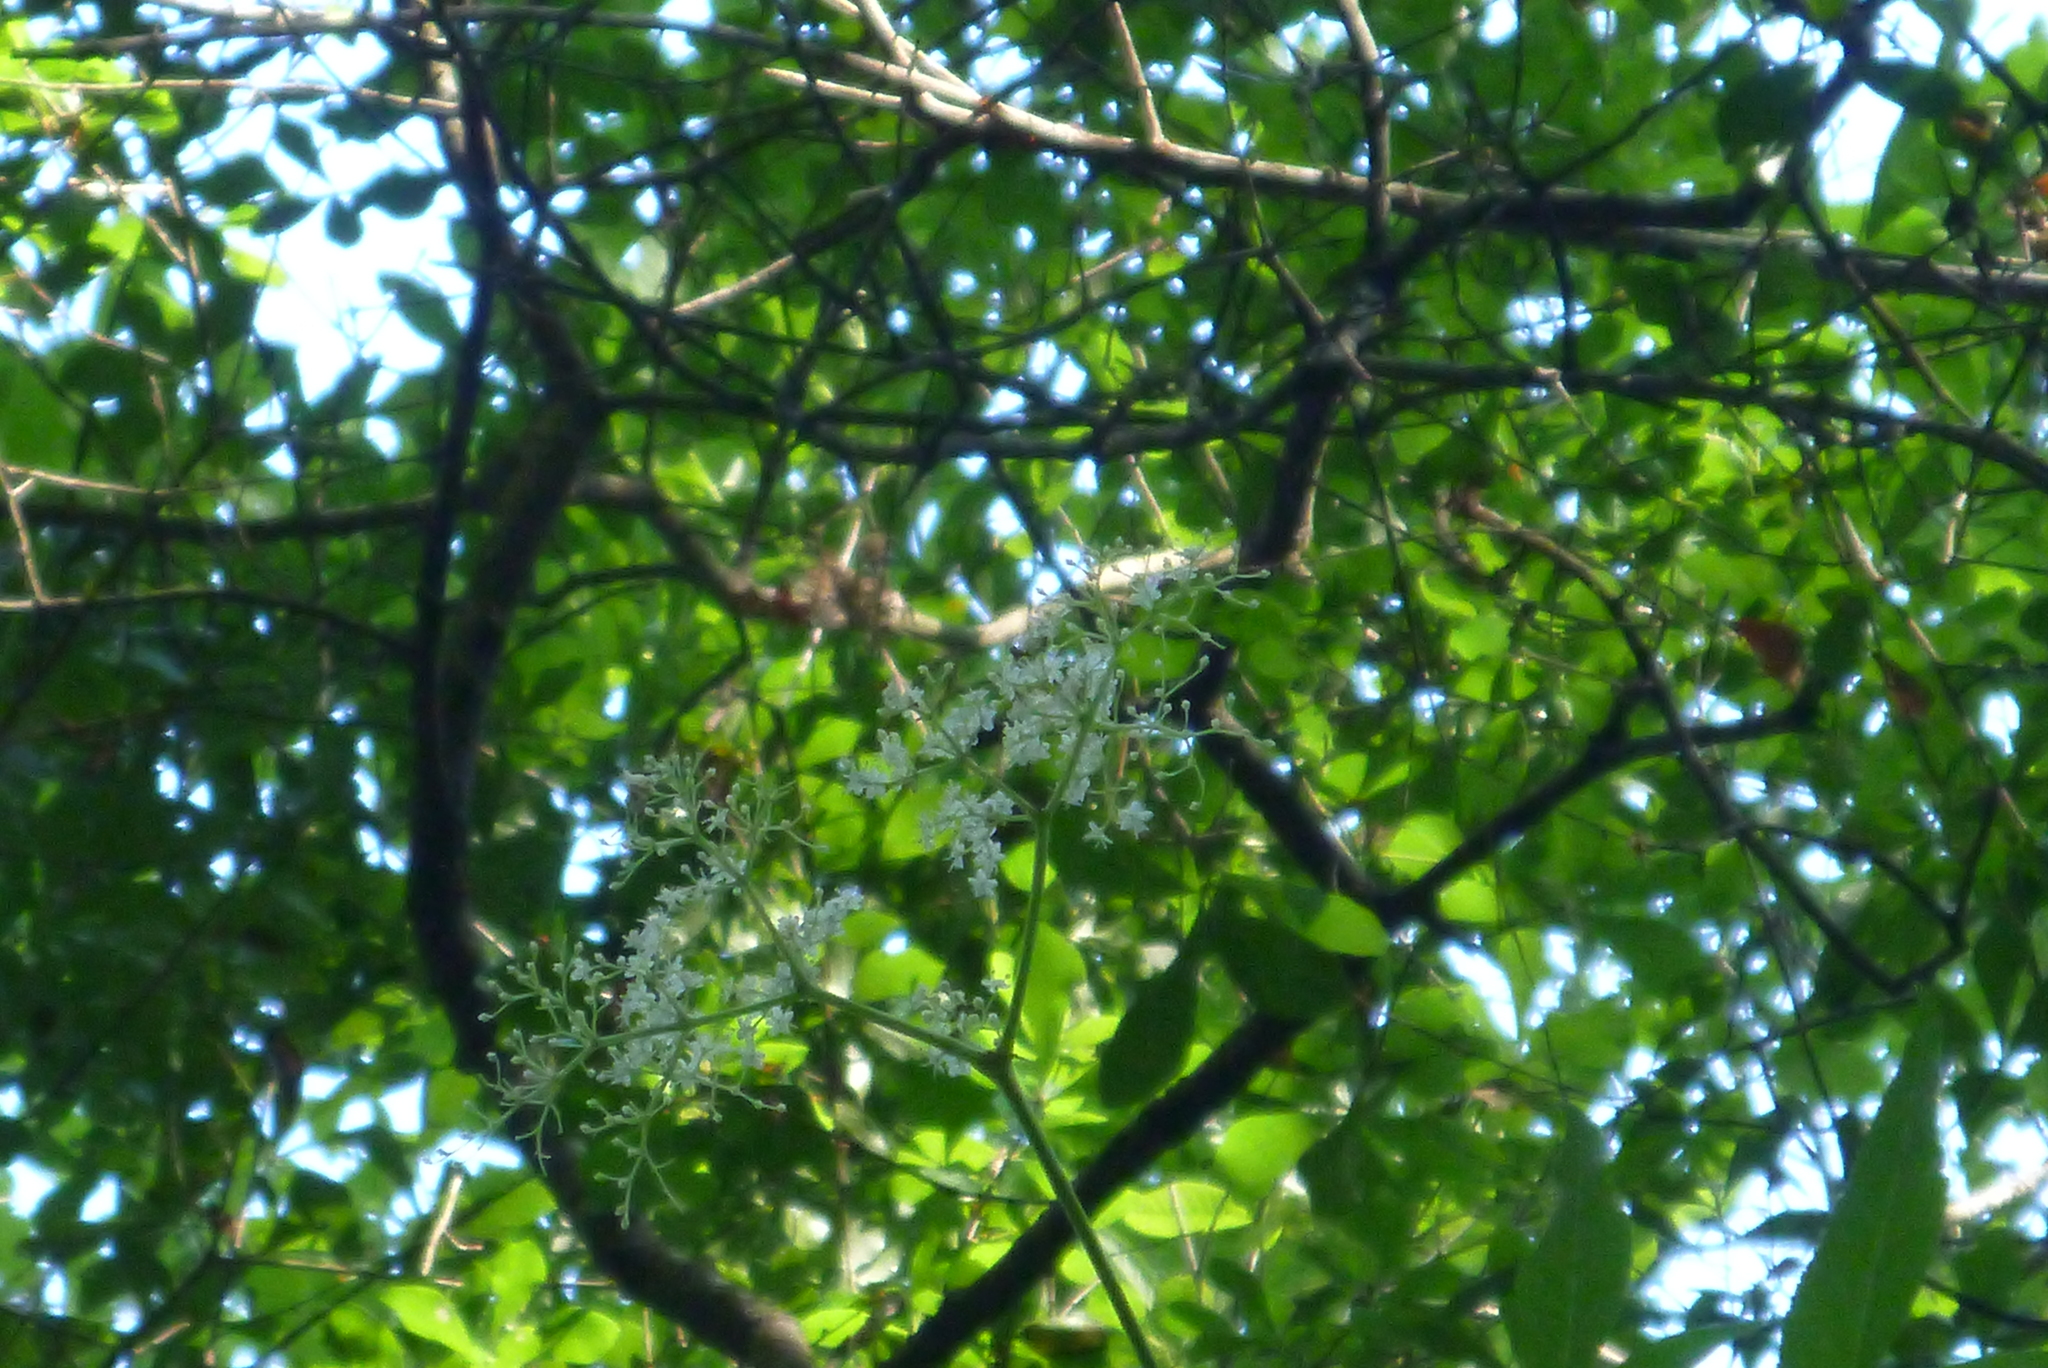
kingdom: Plantae
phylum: Tracheophyta
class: Magnoliopsida
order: Dipsacales
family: Viburnaceae
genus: Sambucus
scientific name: Sambucus canadensis
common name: American elder
